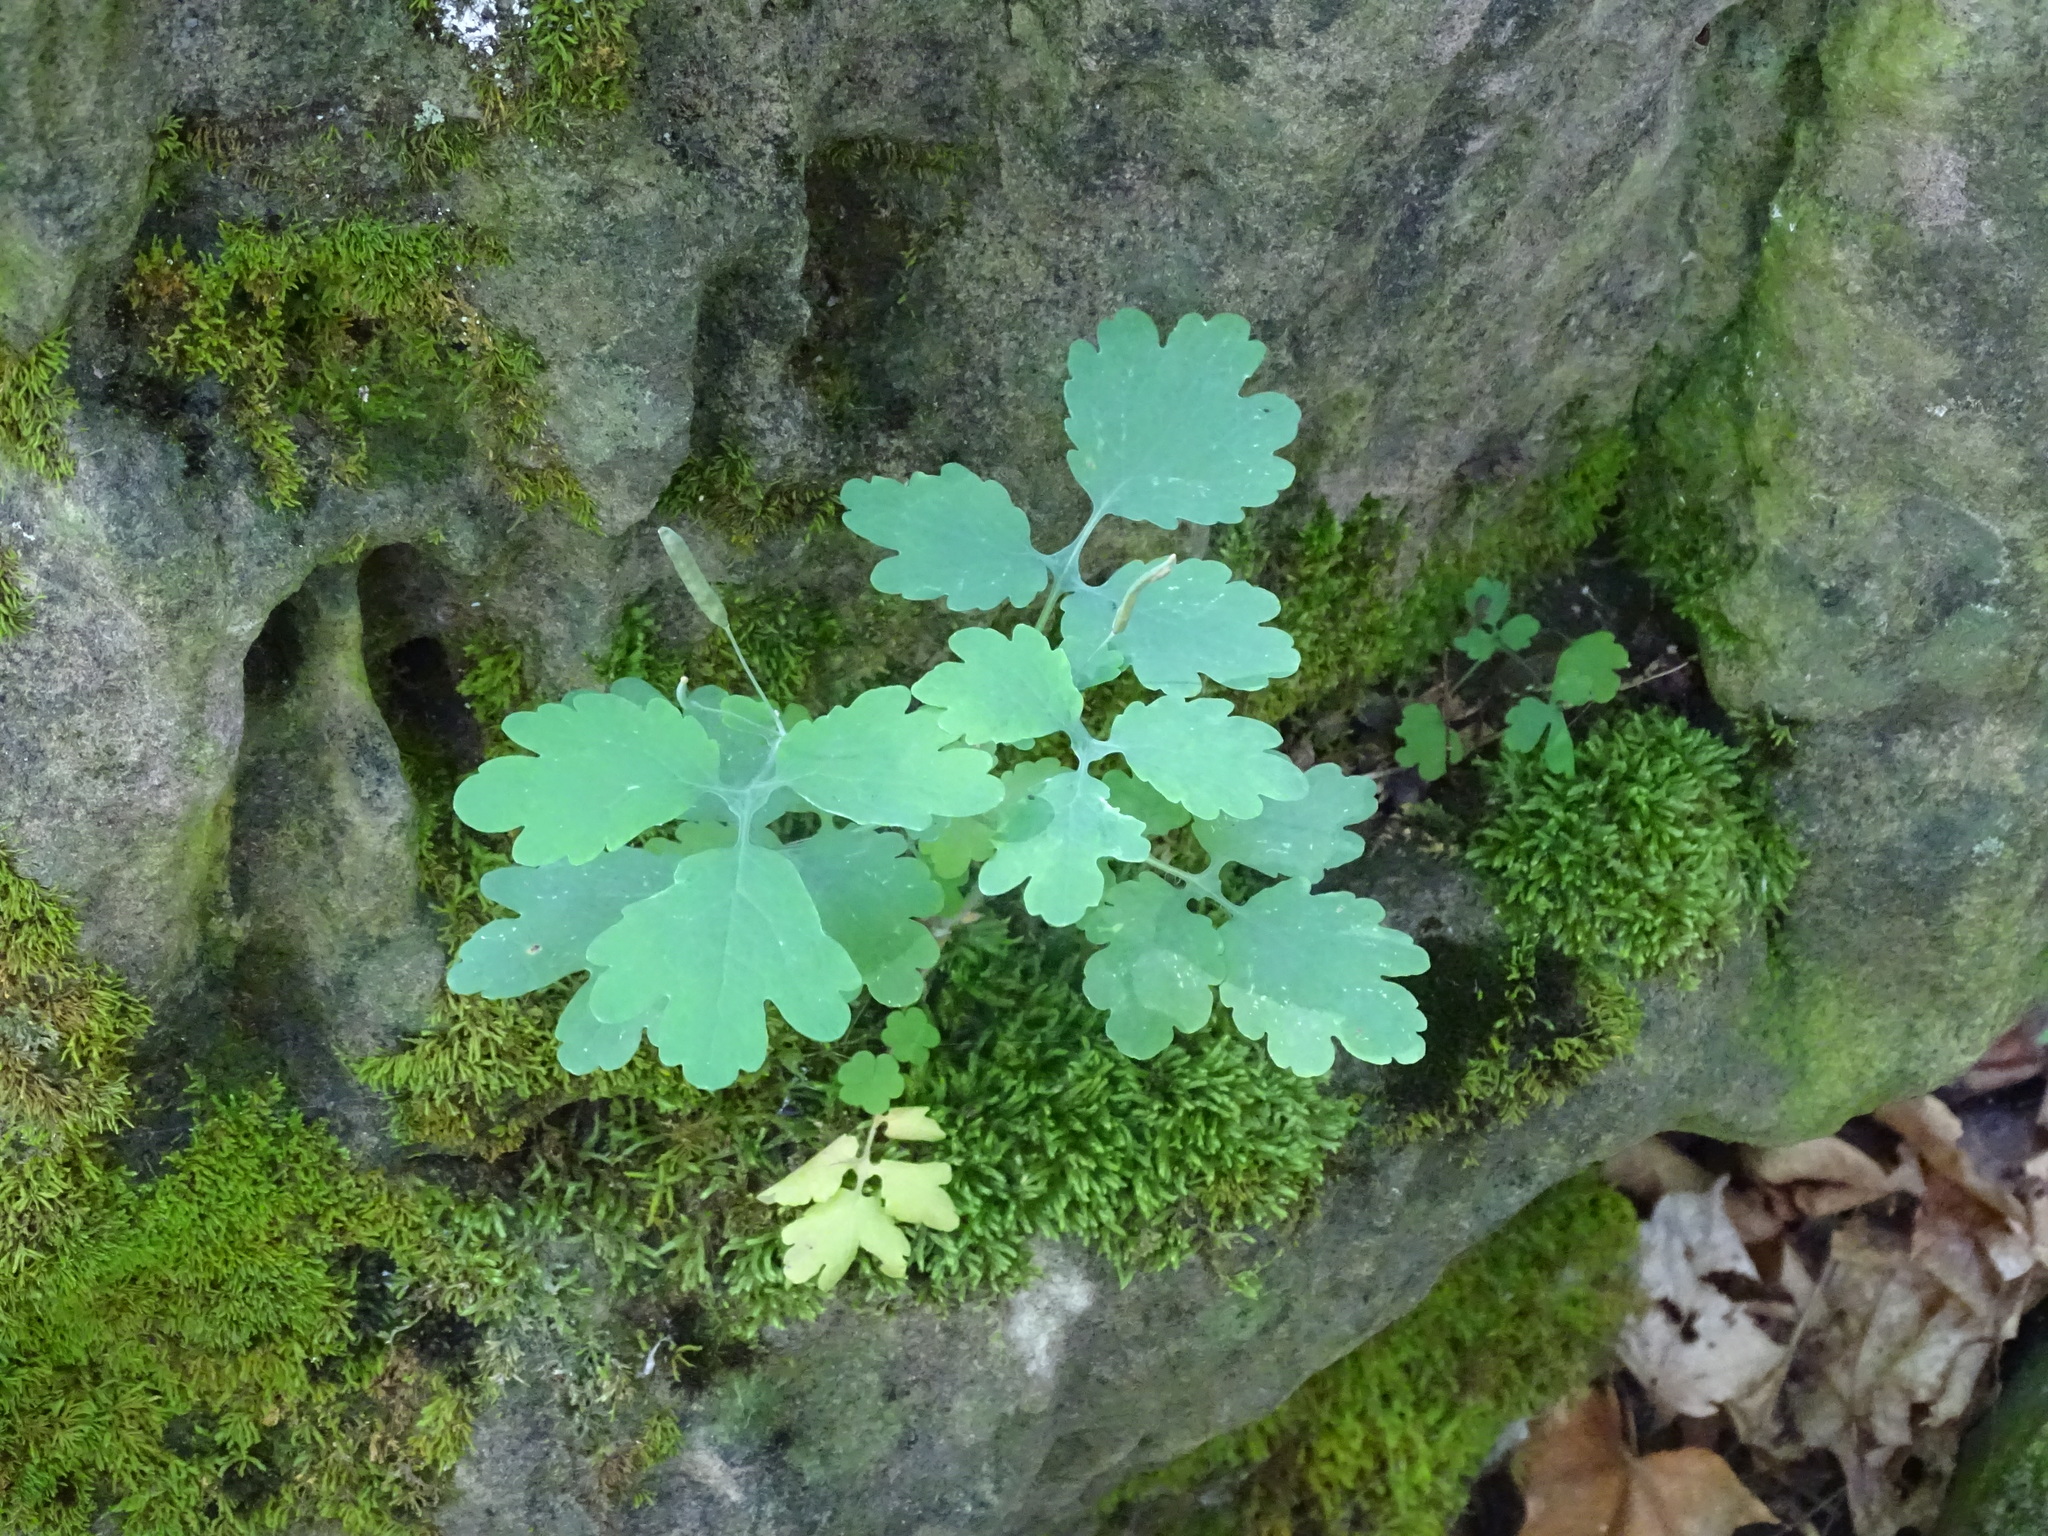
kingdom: Plantae
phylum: Tracheophyta
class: Magnoliopsida
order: Ranunculales
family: Papaveraceae
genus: Chelidonium
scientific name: Chelidonium majus
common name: Greater celandine
